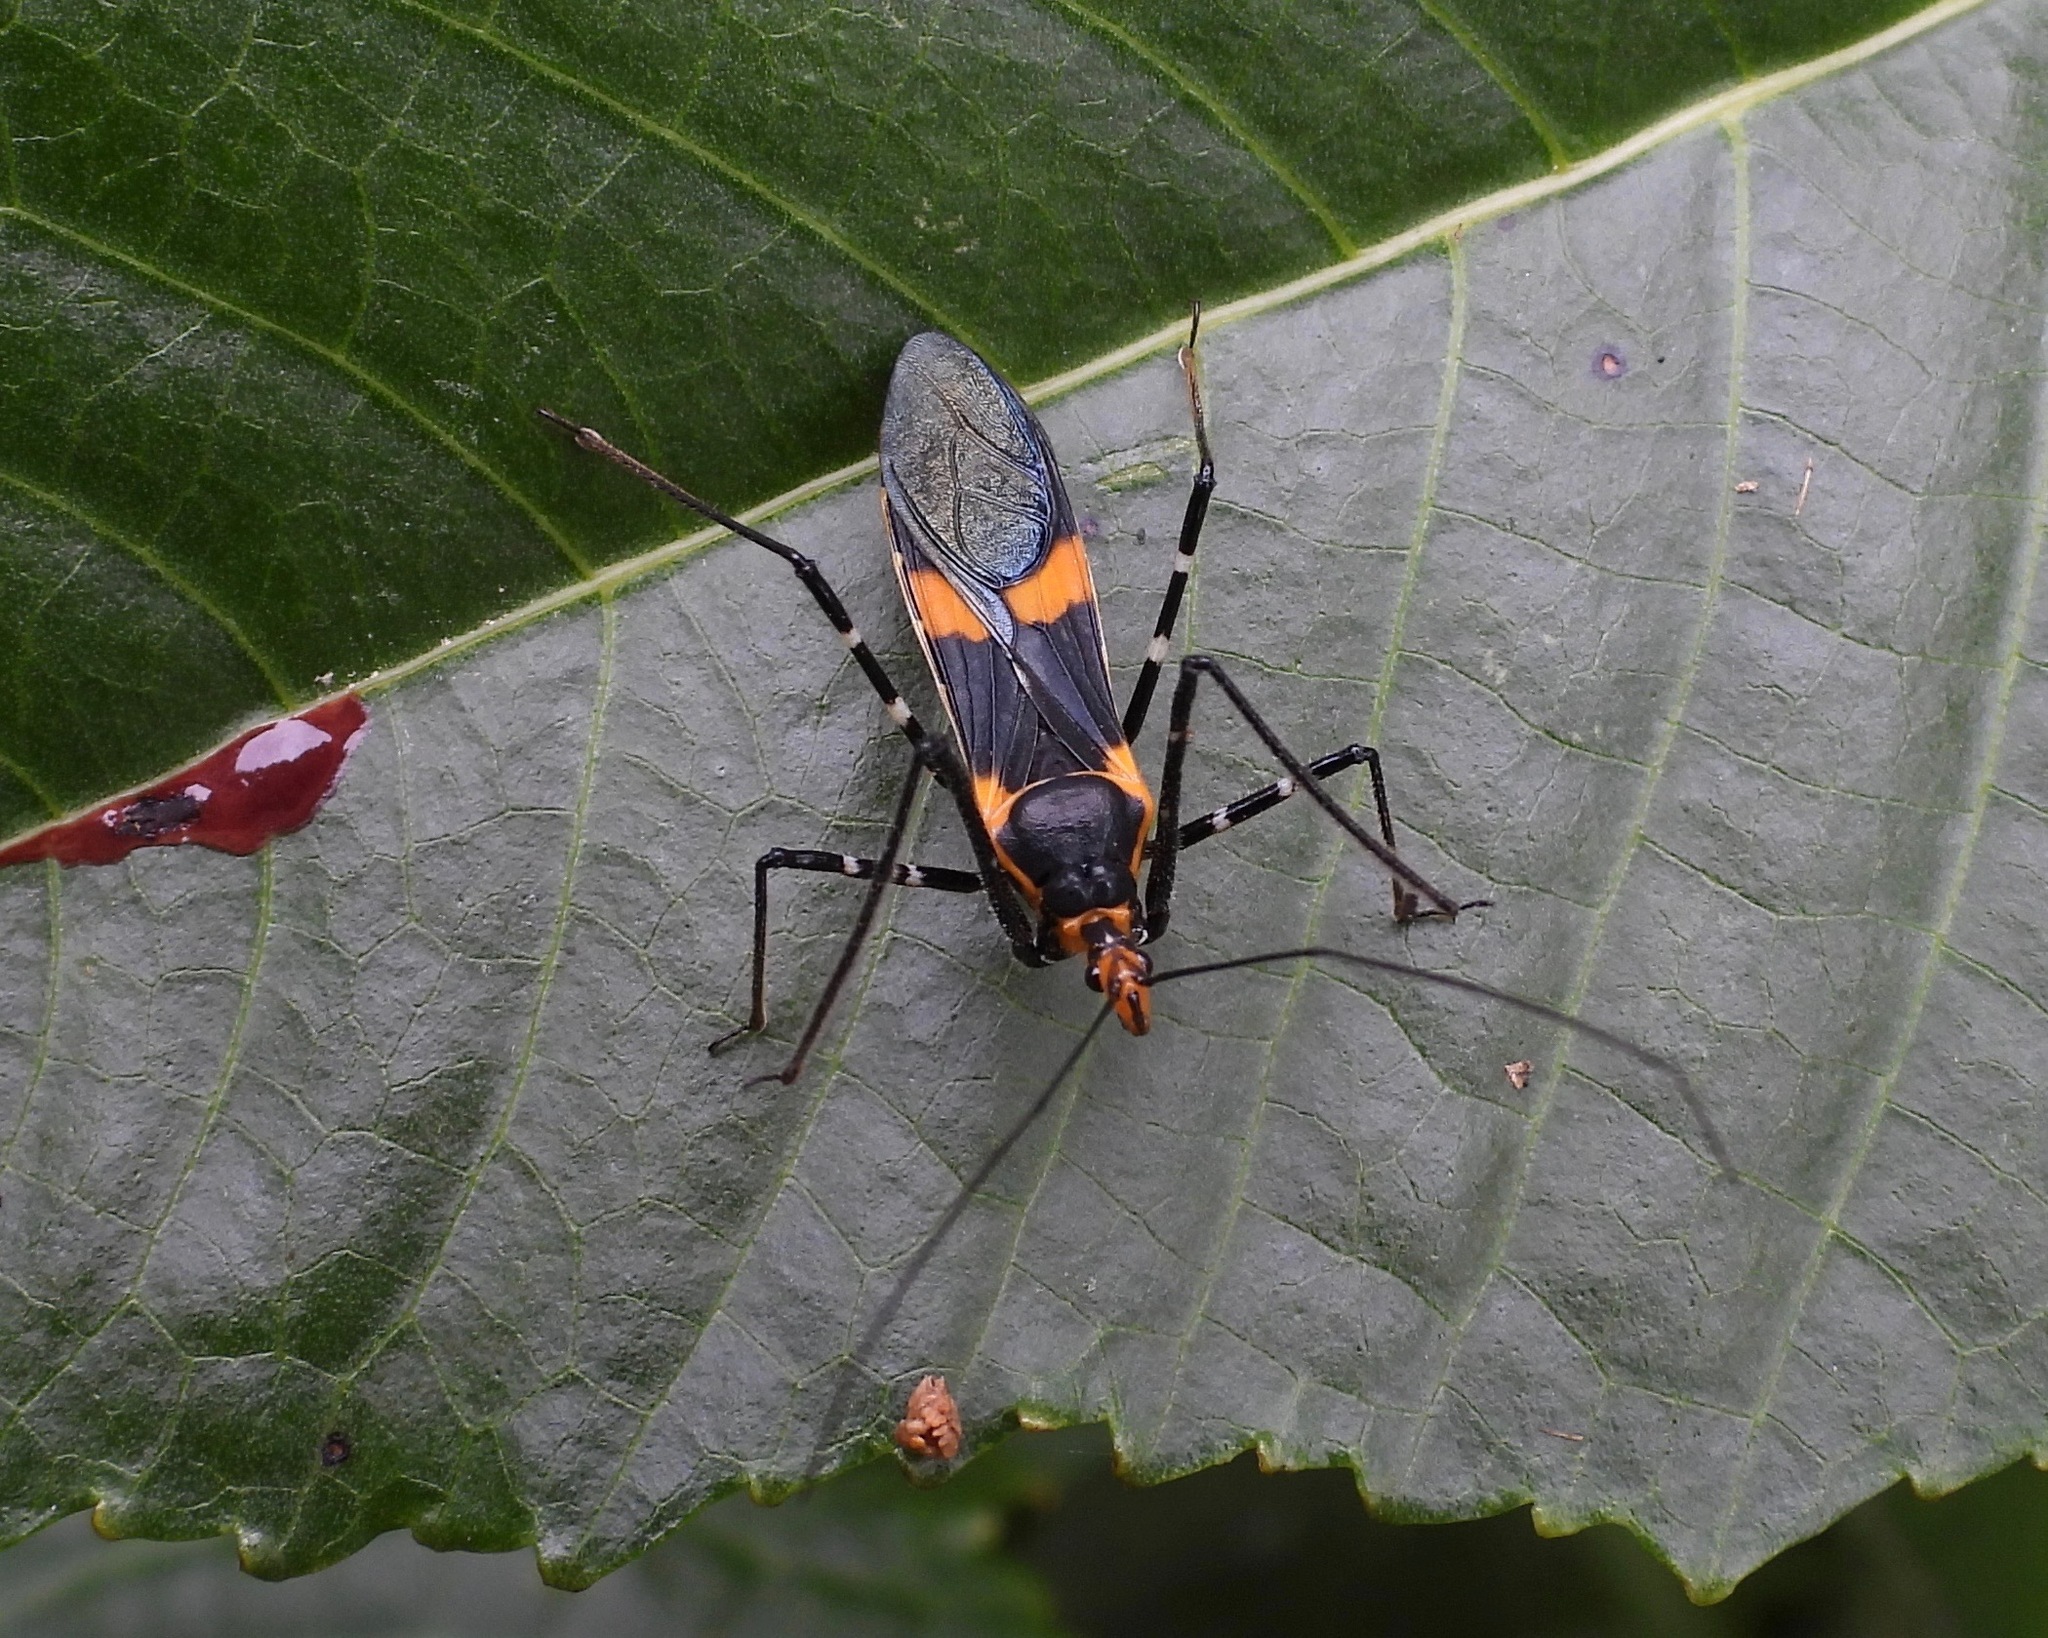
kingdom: Animalia
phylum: Arthropoda
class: Insecta
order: Hemiptera
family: Reduviidae
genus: Zelus
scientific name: Zelus longipes
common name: Milkweed assassin bug
